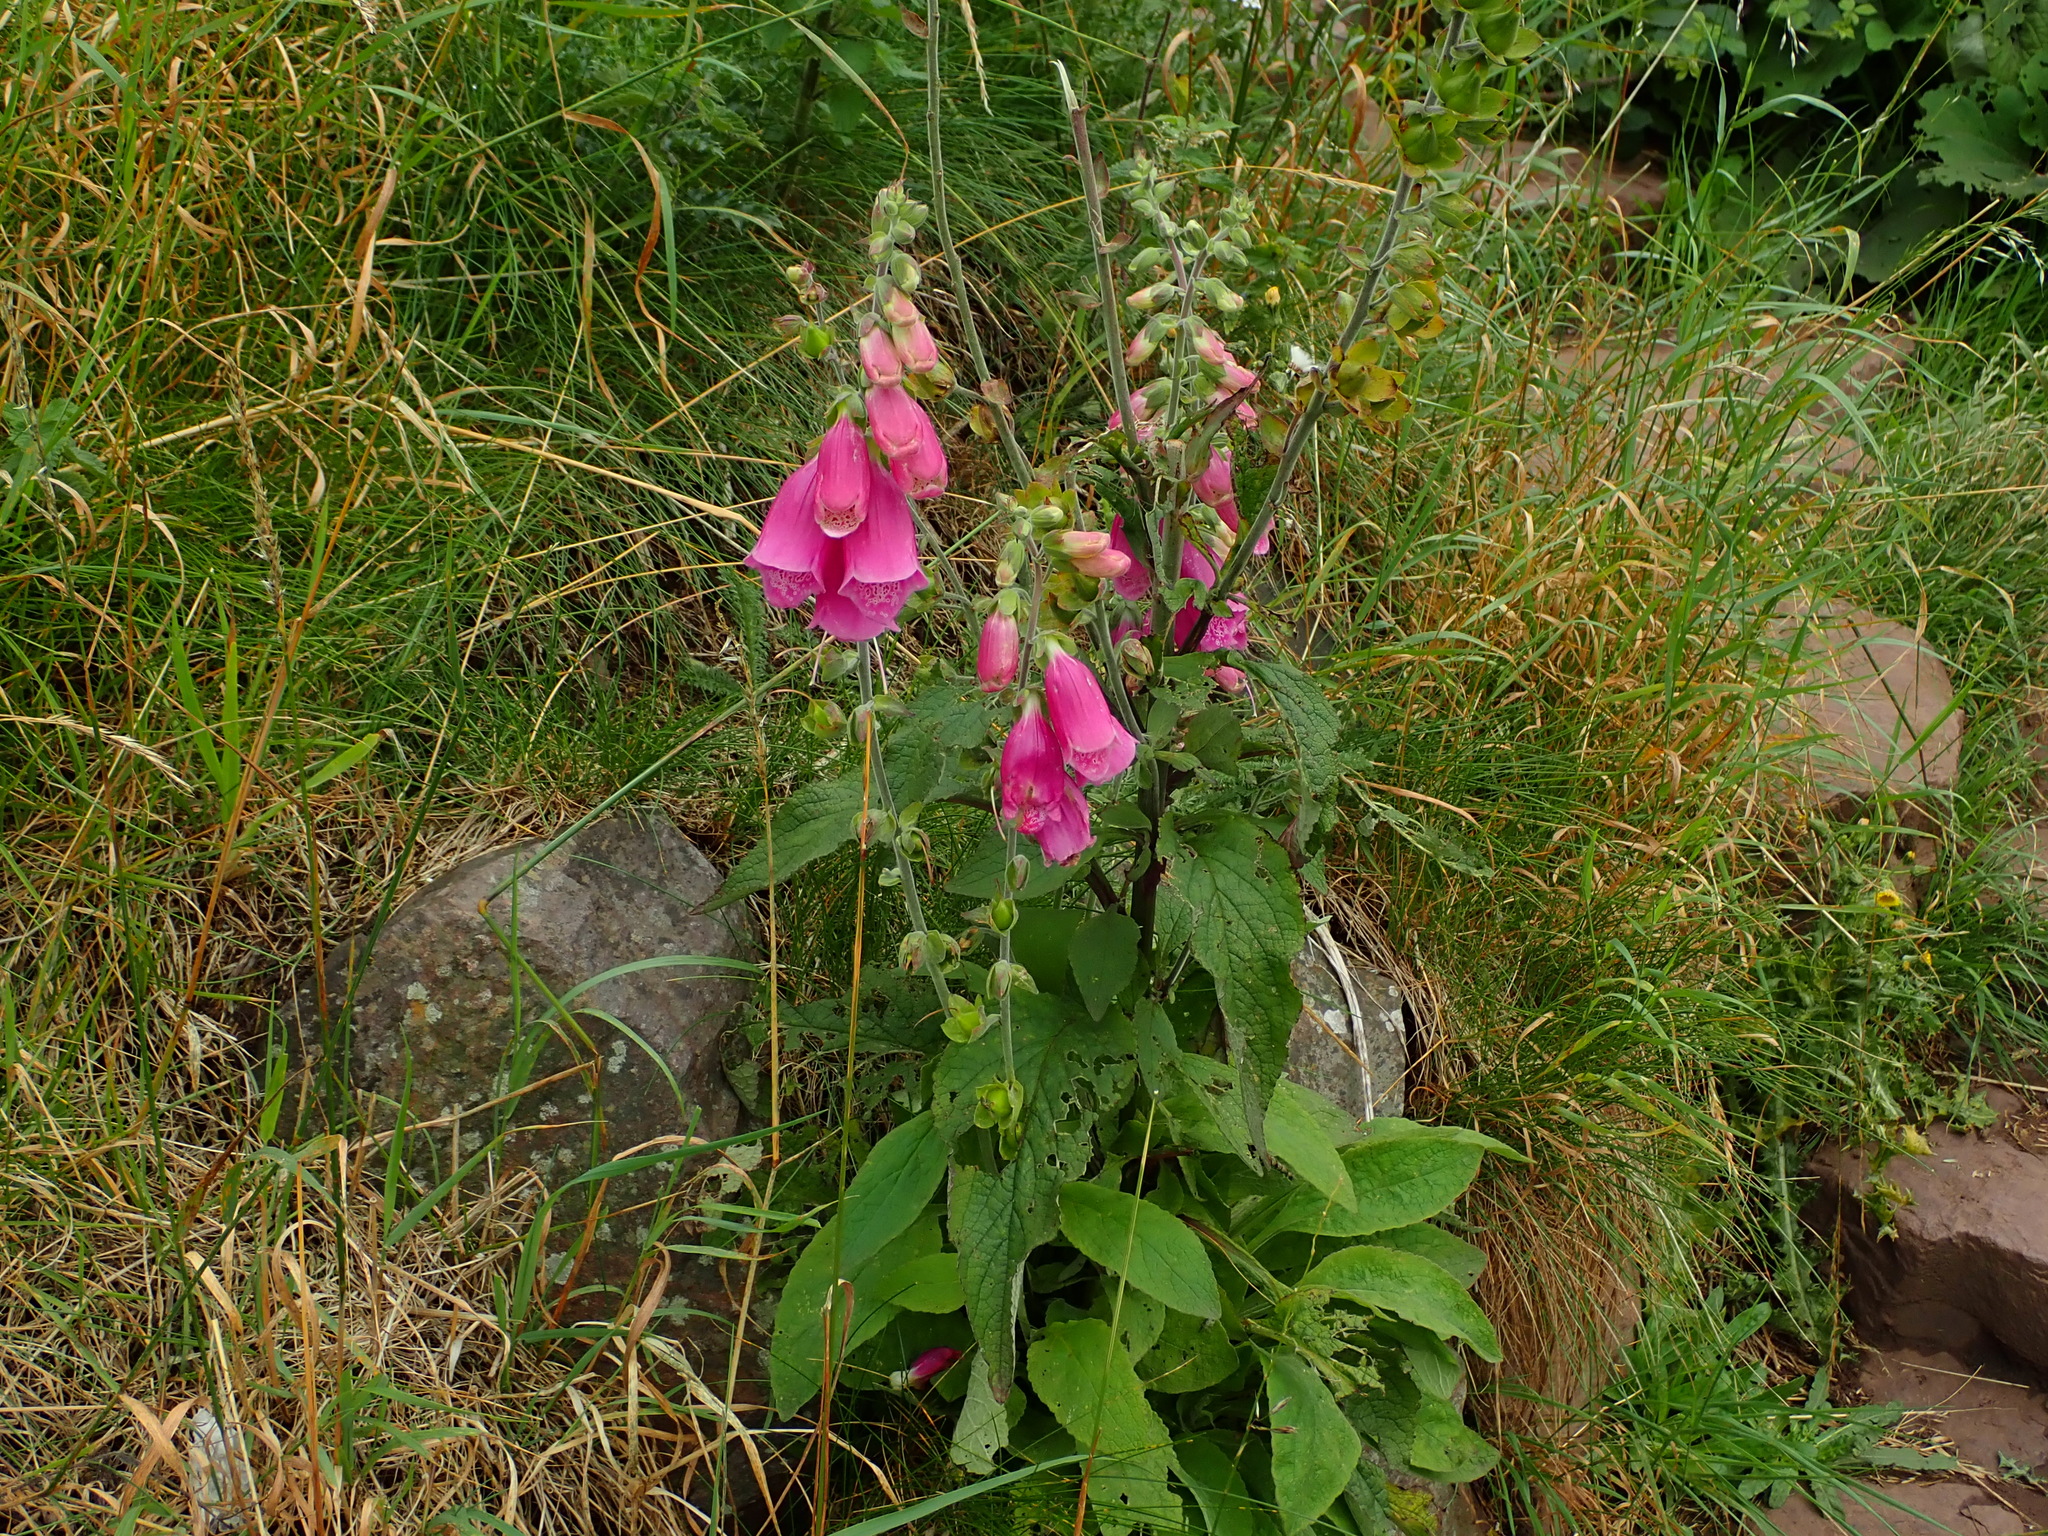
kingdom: Plantae
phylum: Tracheophyta
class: Magnoliopsida
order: Lamiales
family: Plantaginaceae
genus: Digitalis
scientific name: Digitalis purpurea
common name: Foxglove
